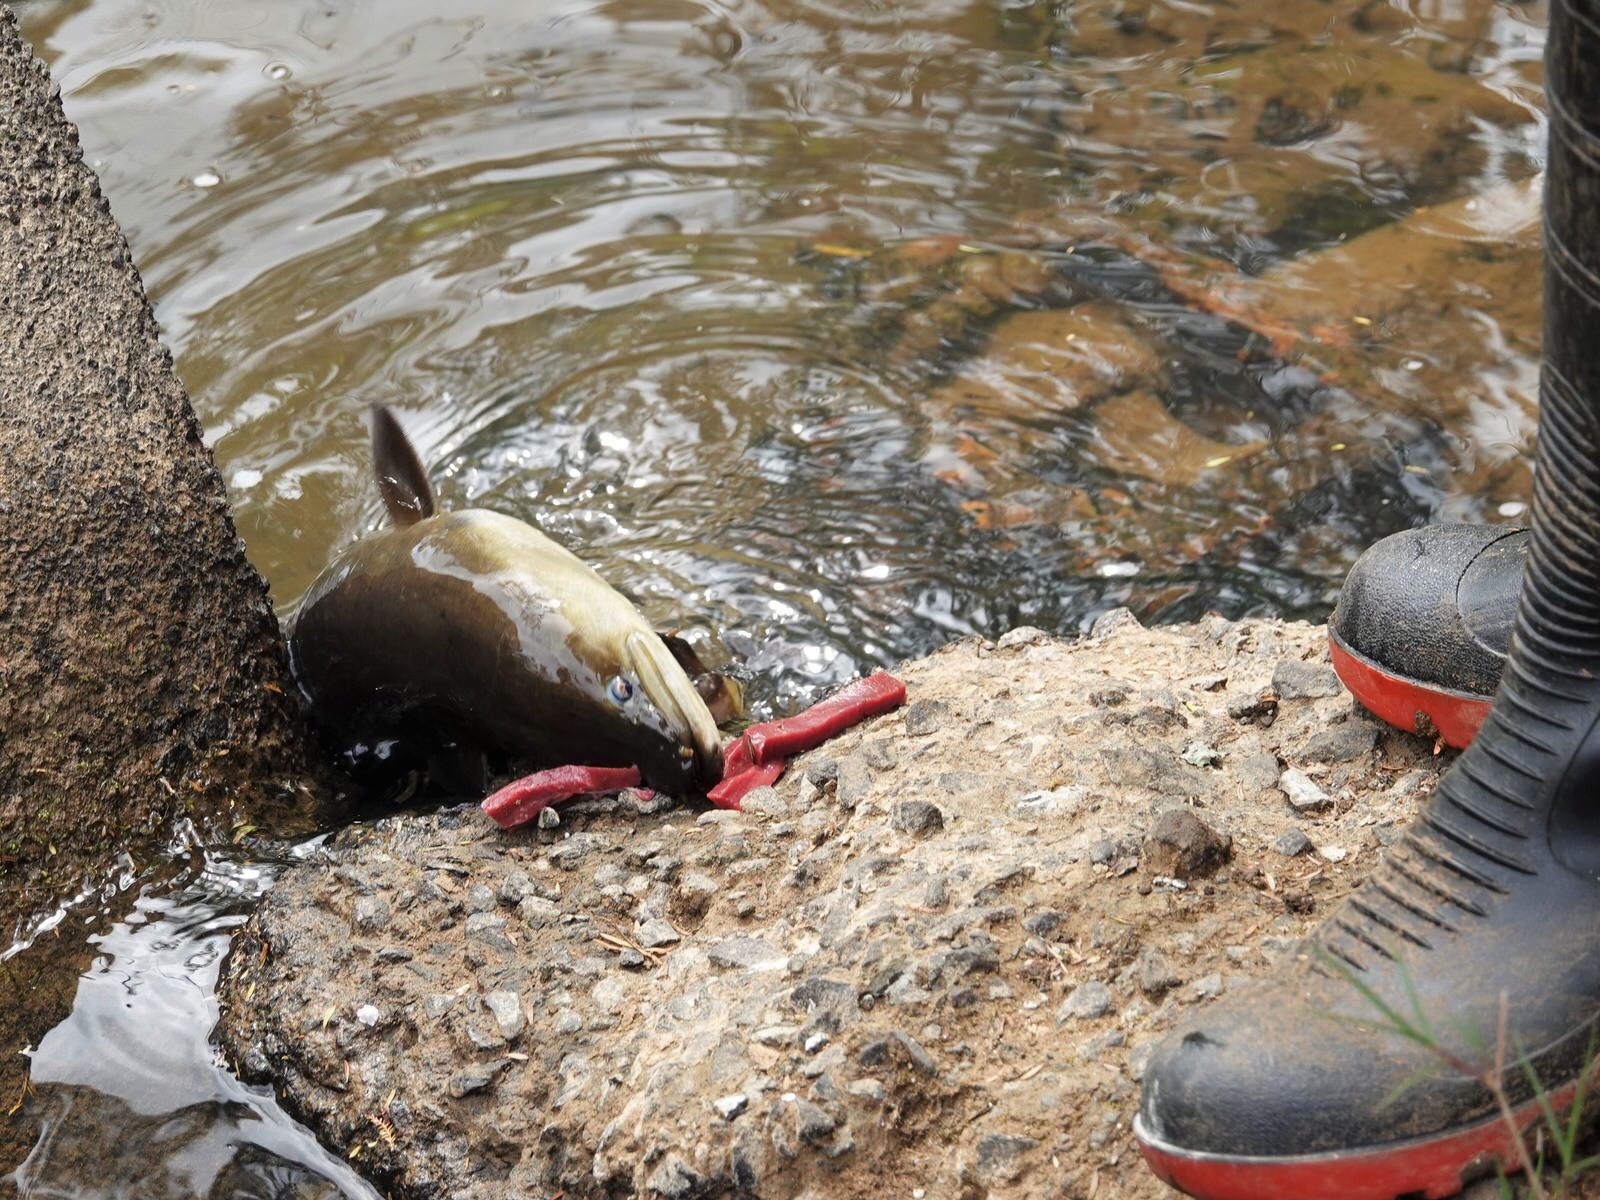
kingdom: Animalia
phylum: Chordata
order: Anguilliformes
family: Anguillidae
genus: Anguilla
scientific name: Anguilla dieffenbachii
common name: New zealand longfin eel
